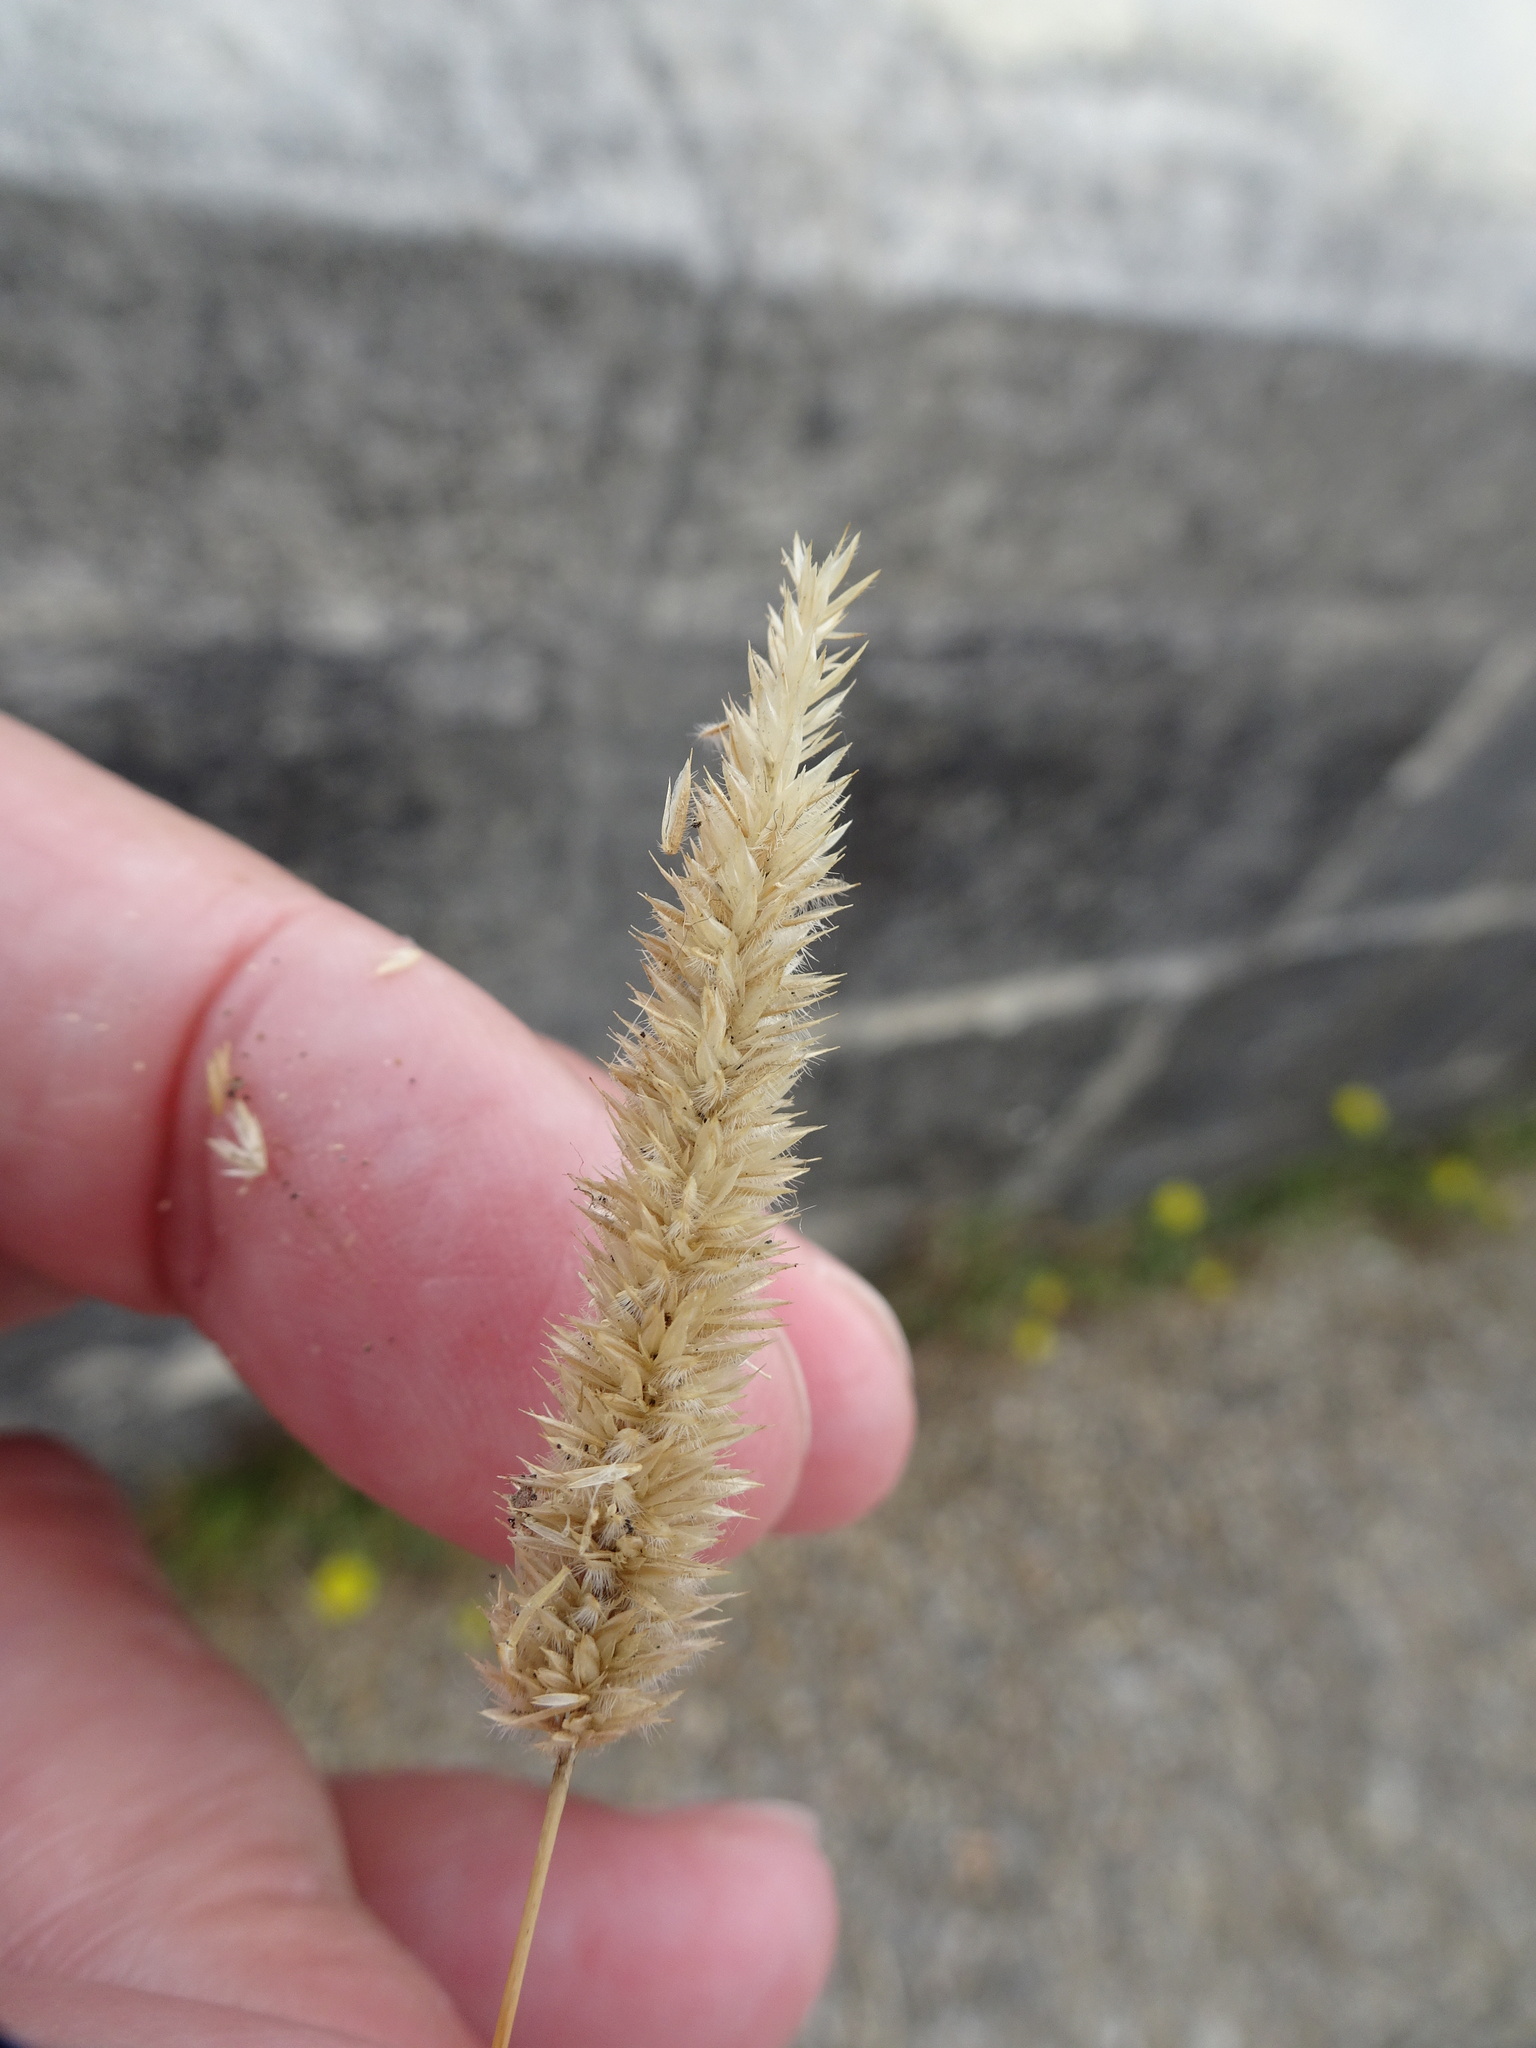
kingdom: Plantae
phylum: Tracheophyta
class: Liliopsida
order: Poales
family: Poaceae
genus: Rostraria
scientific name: Rostraria cristata
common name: Mediterranean hair-grass
